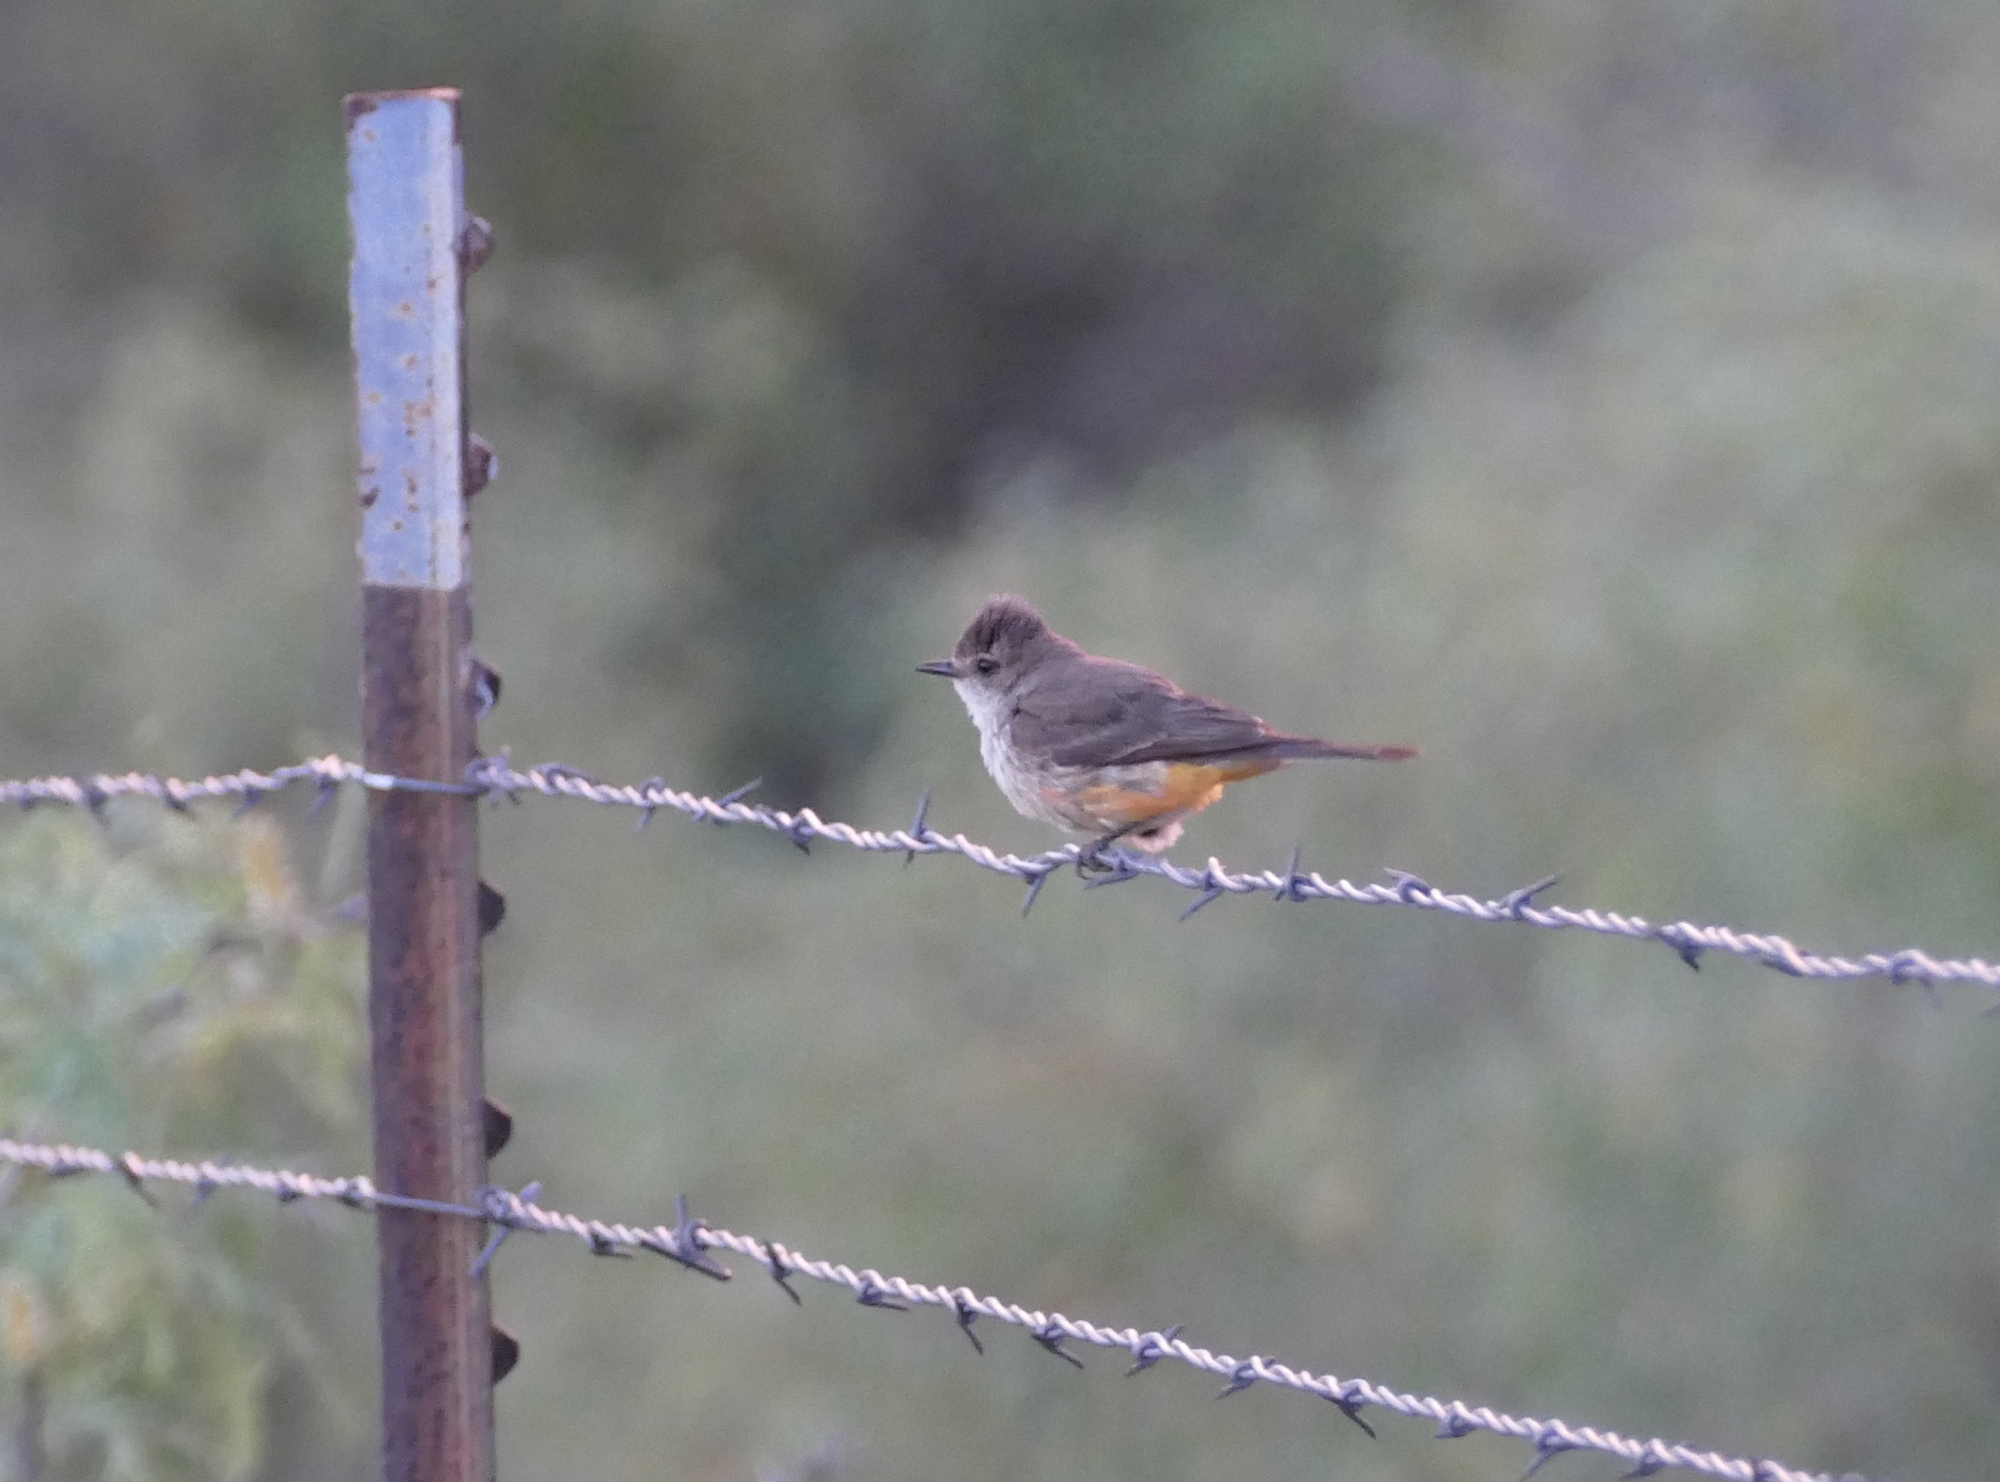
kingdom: Animalia
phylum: Chordata
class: Aves
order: Passeriformes
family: Tyrannidae
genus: Pyrocephalus
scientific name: Pyrocephalus rubinus
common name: Vermilion flycatcher
